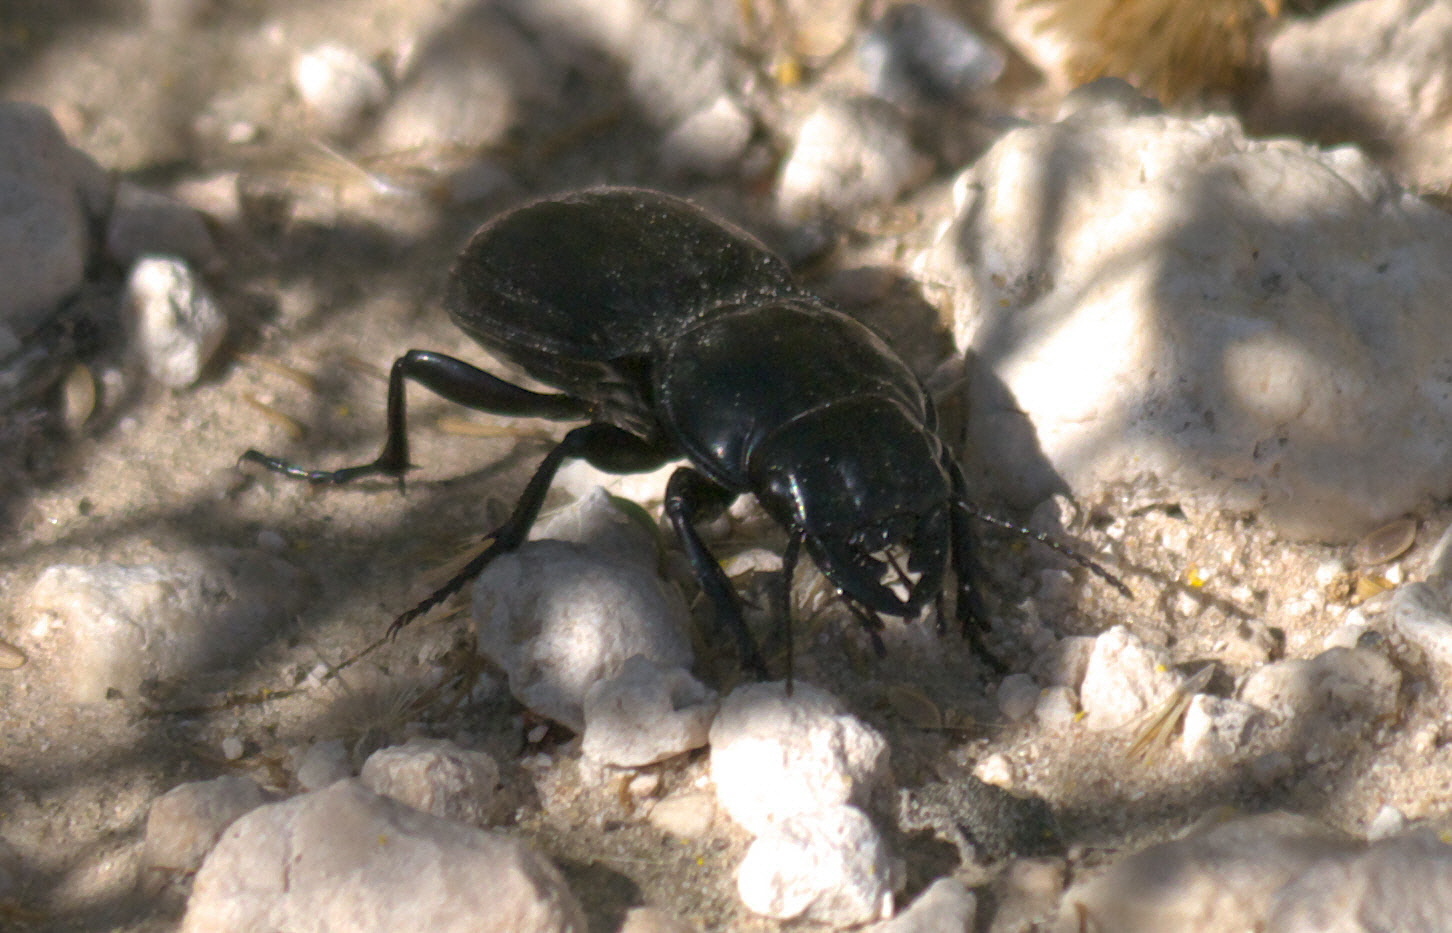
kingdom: Animalia
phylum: Arthropoda
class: Insecta
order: Coleoptera
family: Carabidae
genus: Pasimachus
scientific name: Pasimachus
